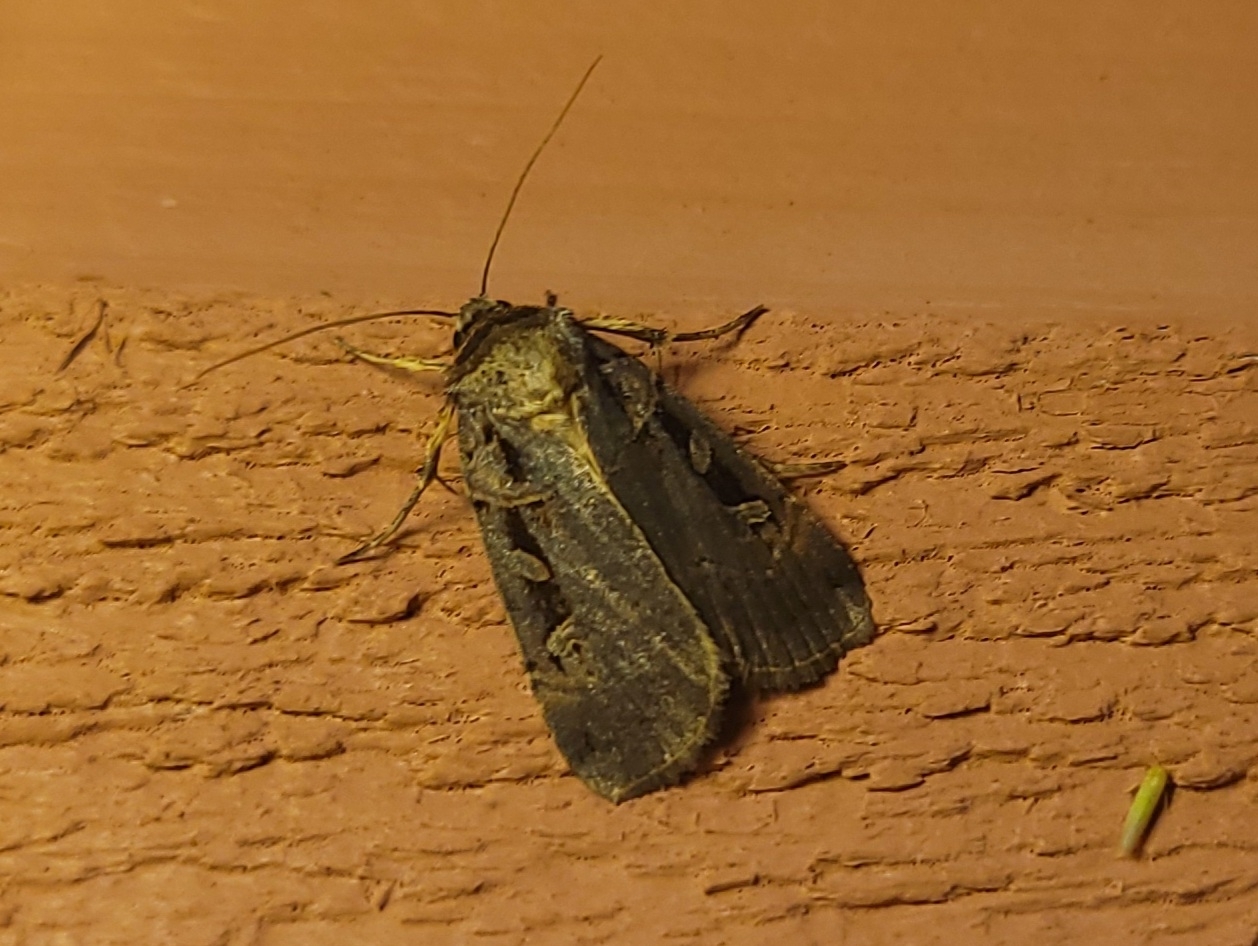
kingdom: Animalia
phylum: Arthropoda
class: Insecta
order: Lepidoptera
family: Noctuidae
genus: Pseudohermonassa
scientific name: Pseudohermonassa bicarnea
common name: Pink spotted dart
